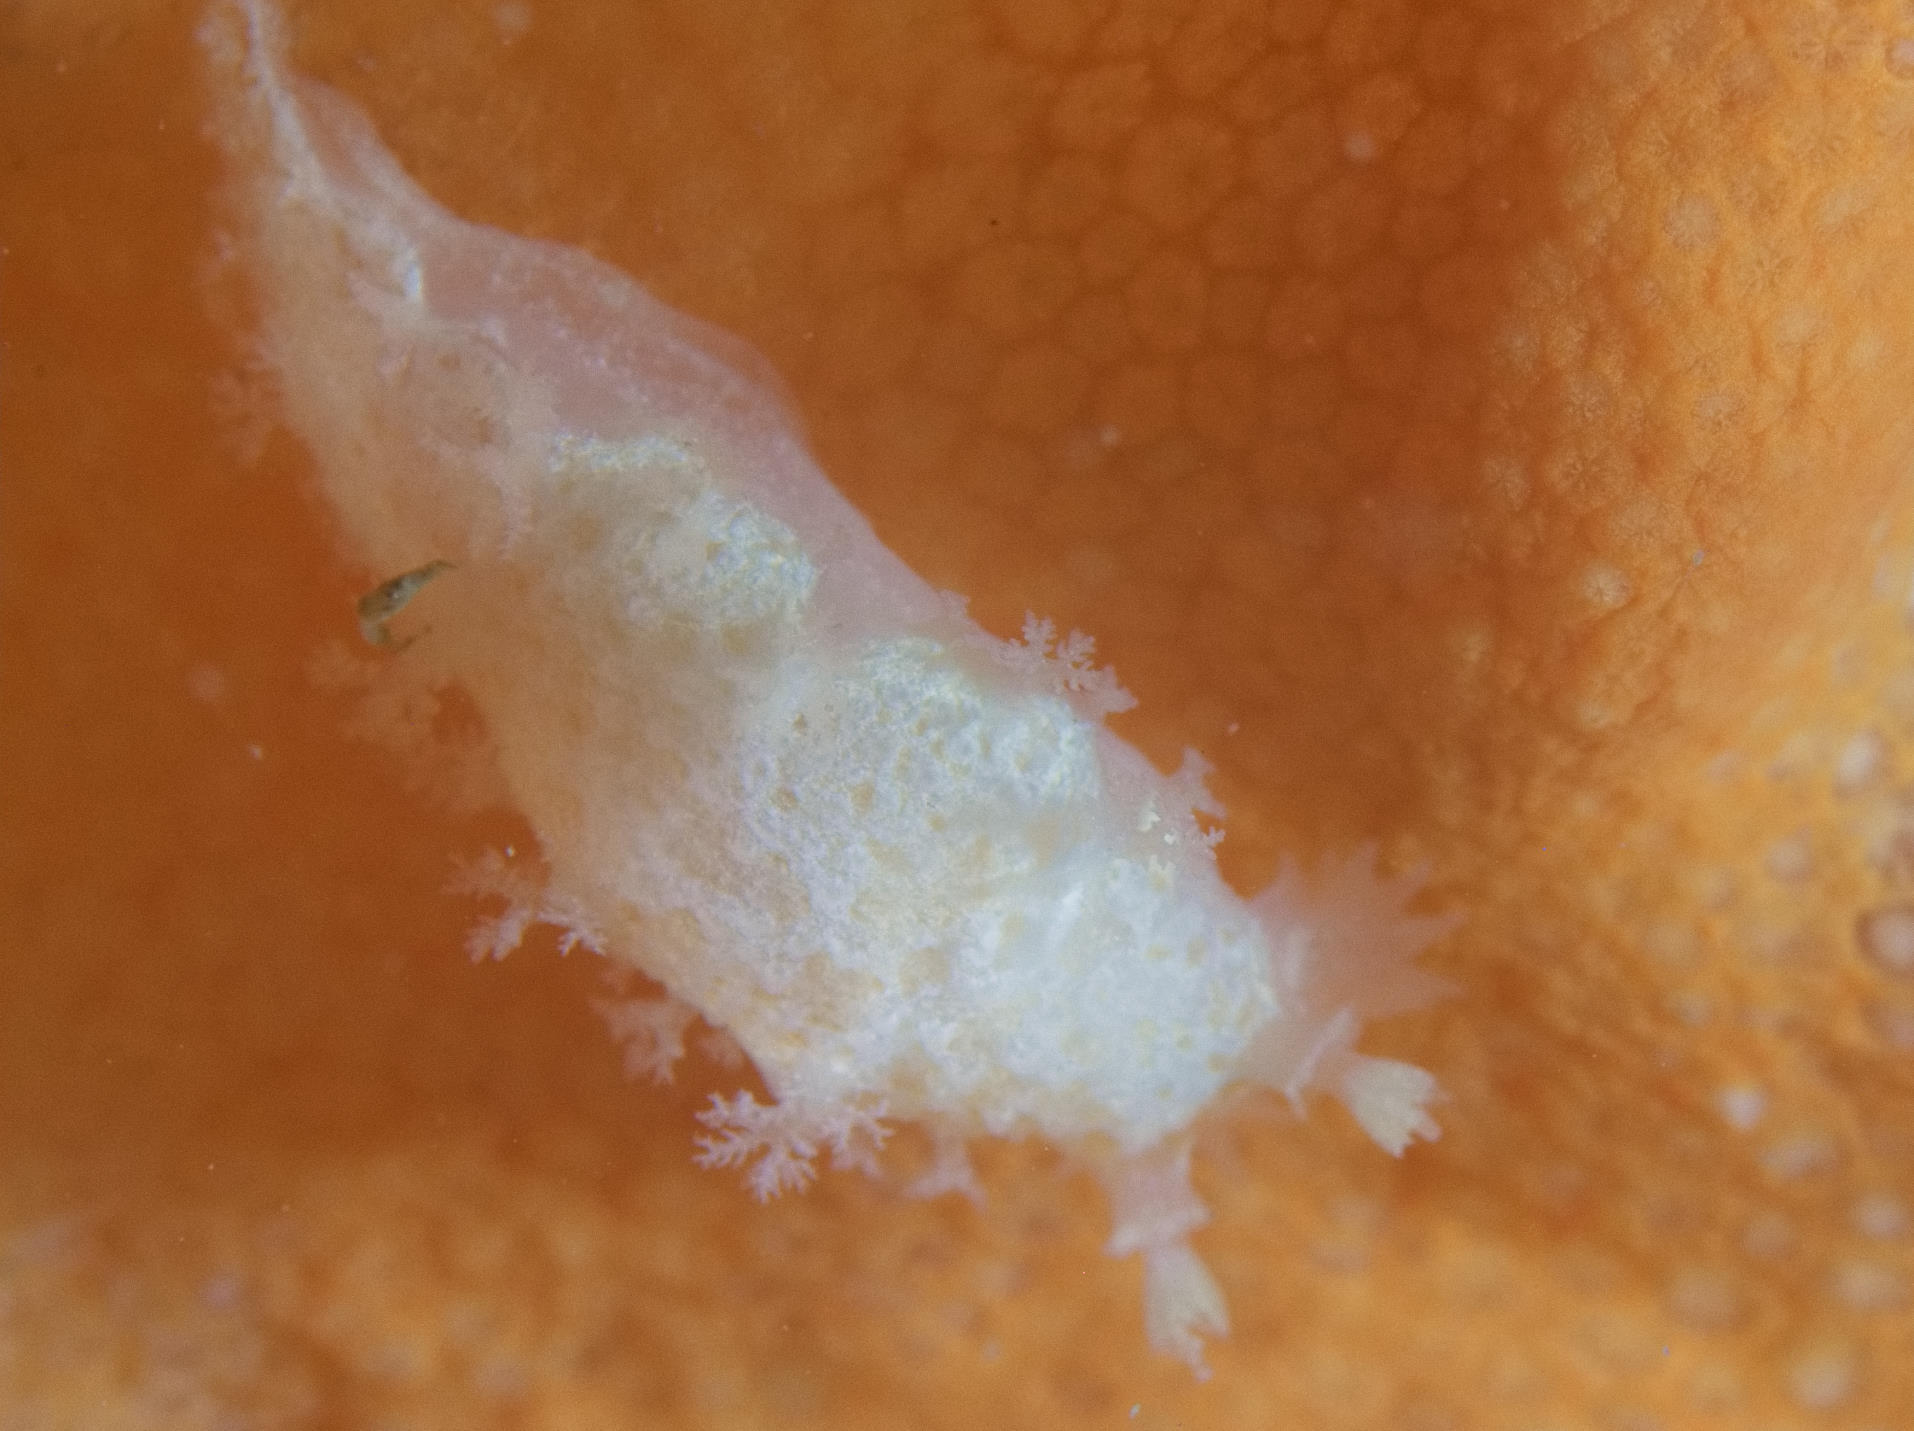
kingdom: Animalia
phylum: Mollusca
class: Gastropoda
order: Nudibranchia
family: Tritoniidae
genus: Tritonia
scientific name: Tritonia hombergii
